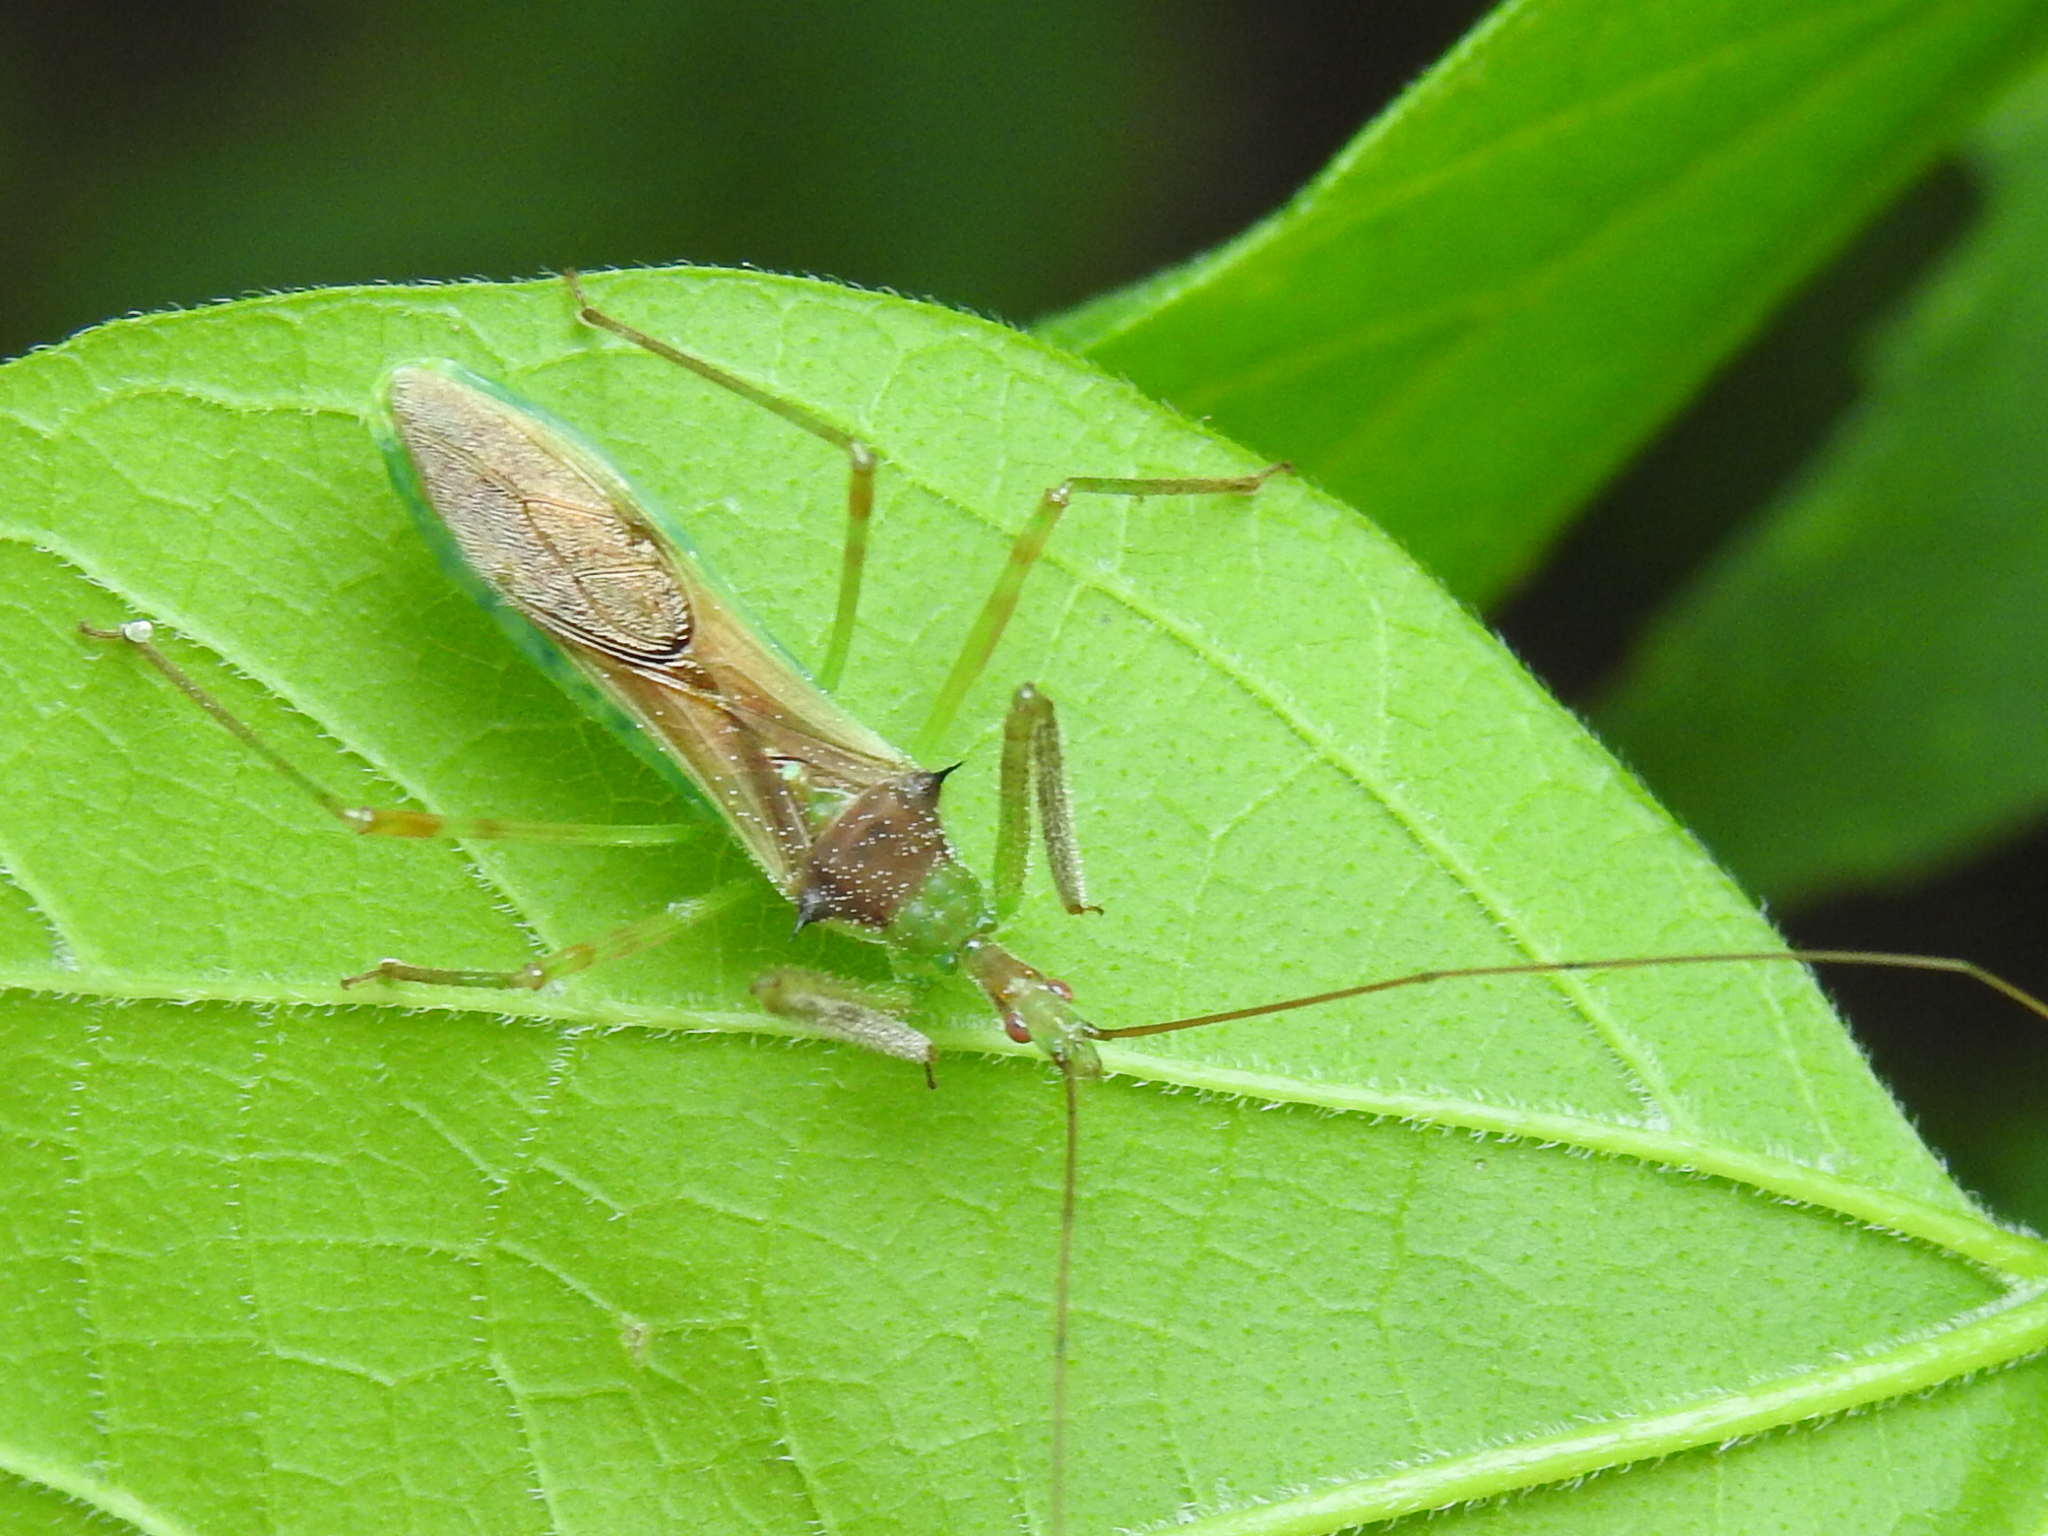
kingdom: Animalia
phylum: Arthropoda
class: Insecta
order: Hemiptera
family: Reduviidae
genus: Zelus
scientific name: Zelus luridus
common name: Pale green assassin bug
